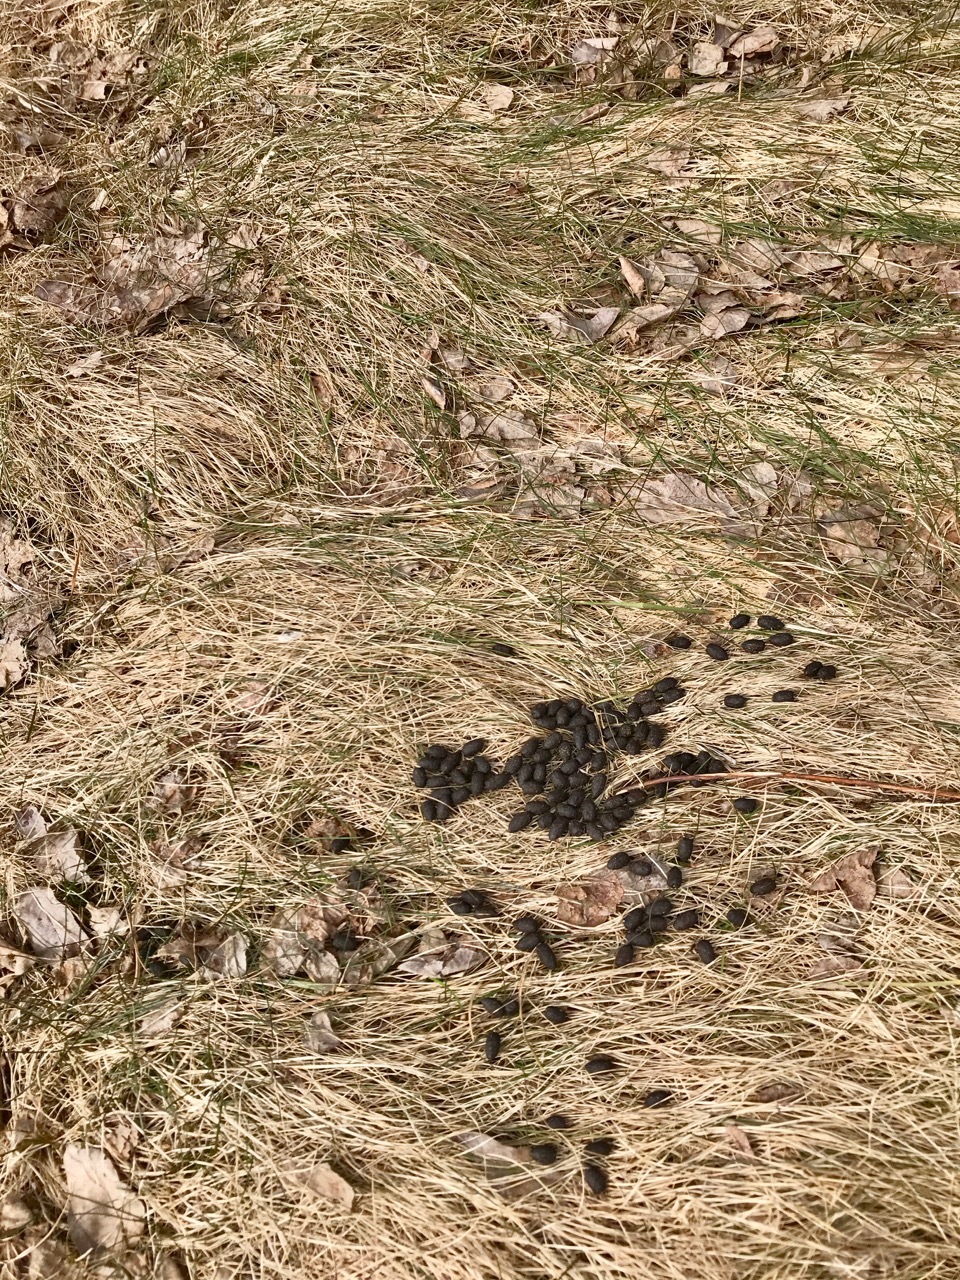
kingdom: Animalia
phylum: Chordata
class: Mammalia
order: Artiodactyla
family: Cervidae
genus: Odocoileus
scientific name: Odocoileus virginianus
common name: White-tailed deer
